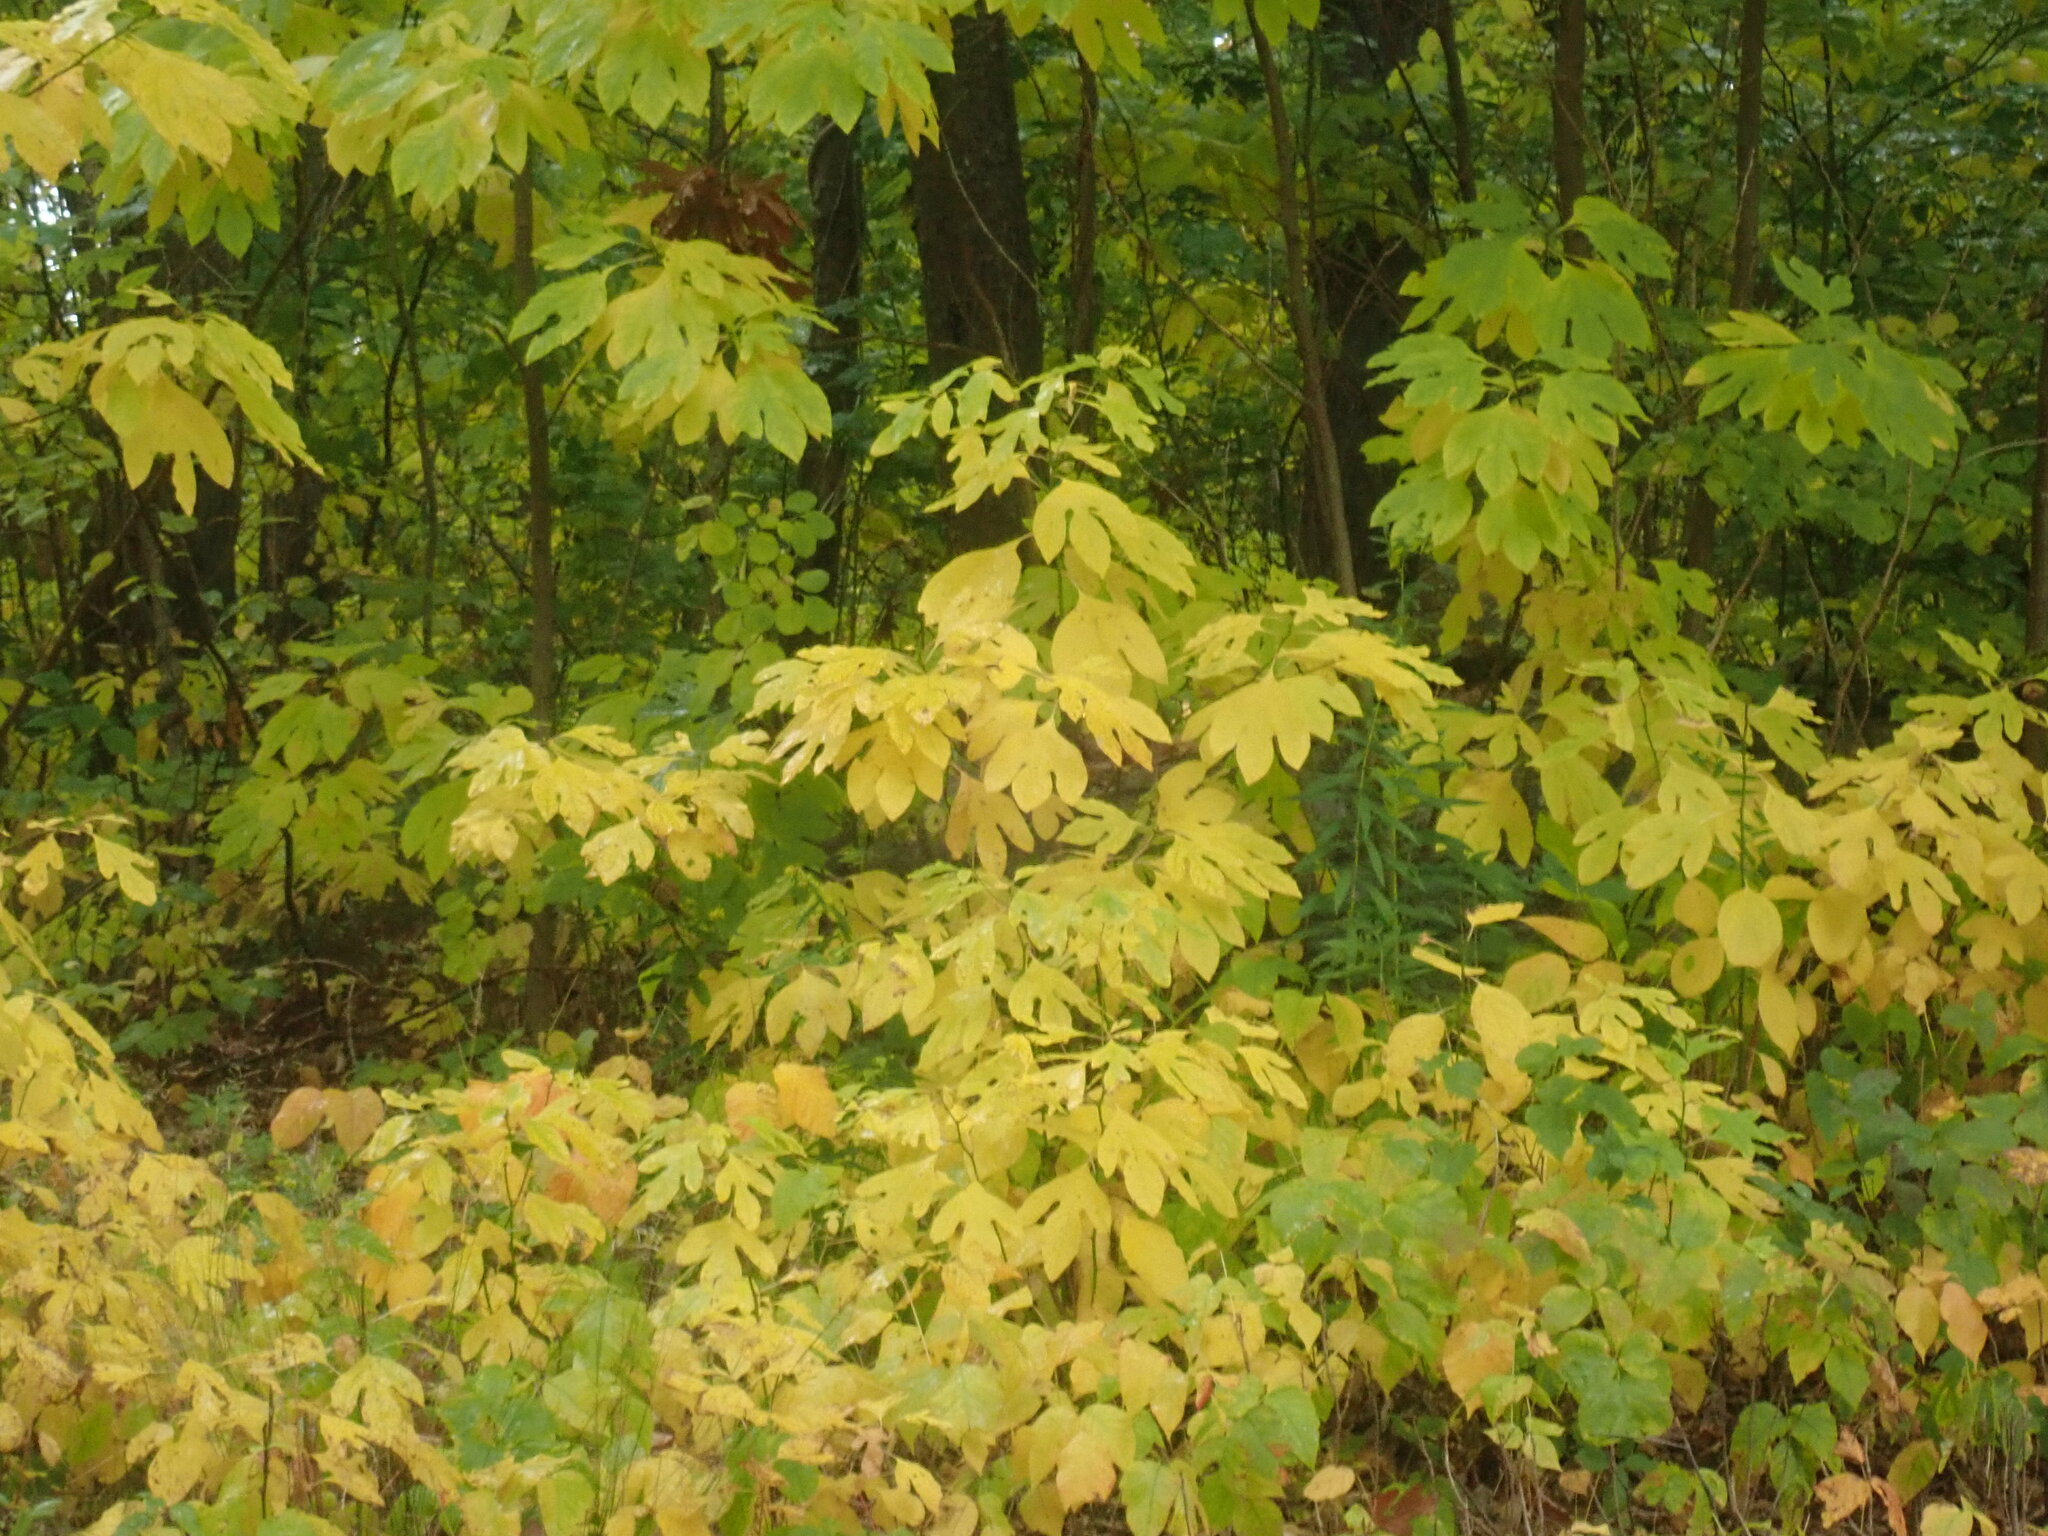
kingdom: Plantae
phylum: Tracheophyta
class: Magnoliopsida
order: Laurales
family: Lauraceae
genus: Sassafras
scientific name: Sassafras albidum
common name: Sassafras
